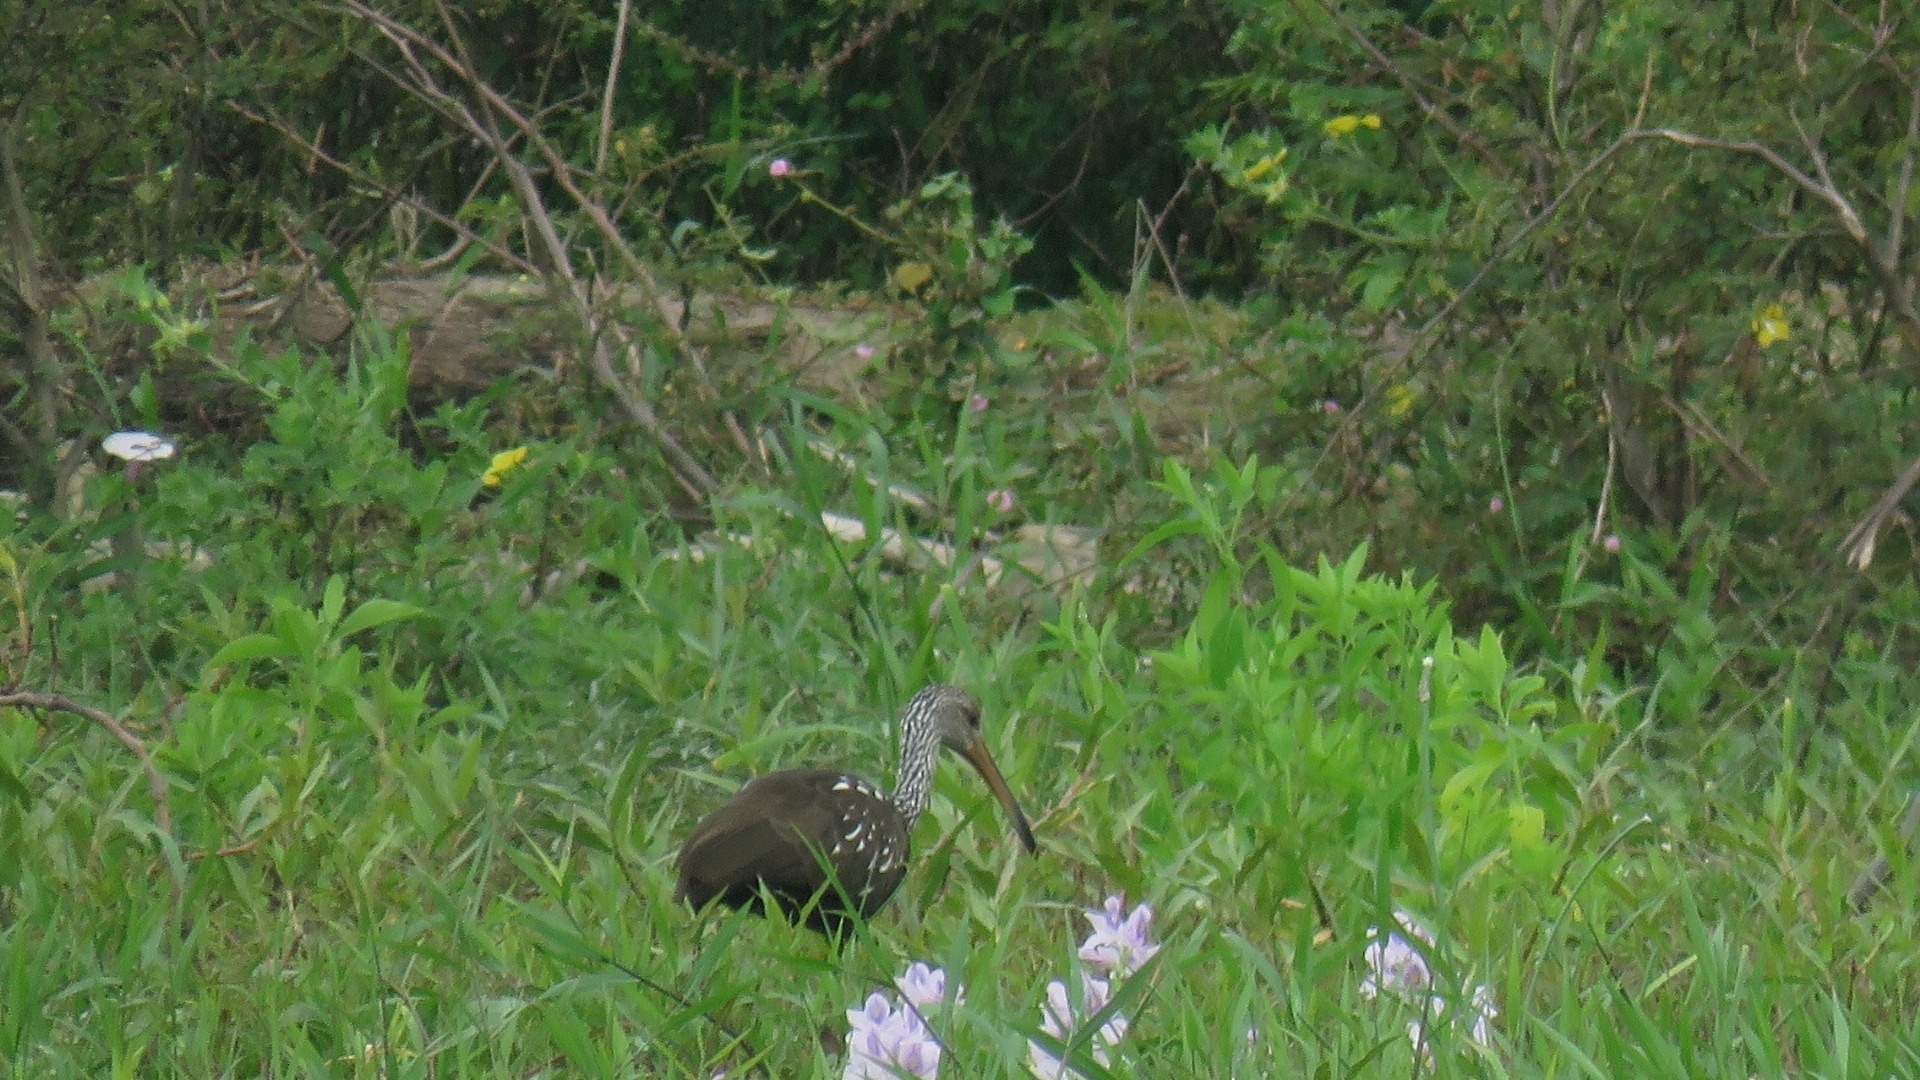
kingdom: Animalia
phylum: Chordata
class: Aves
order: Gruiformes
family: Aramidae
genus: Aramus
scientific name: Aramus guarauna
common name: Limpkin
